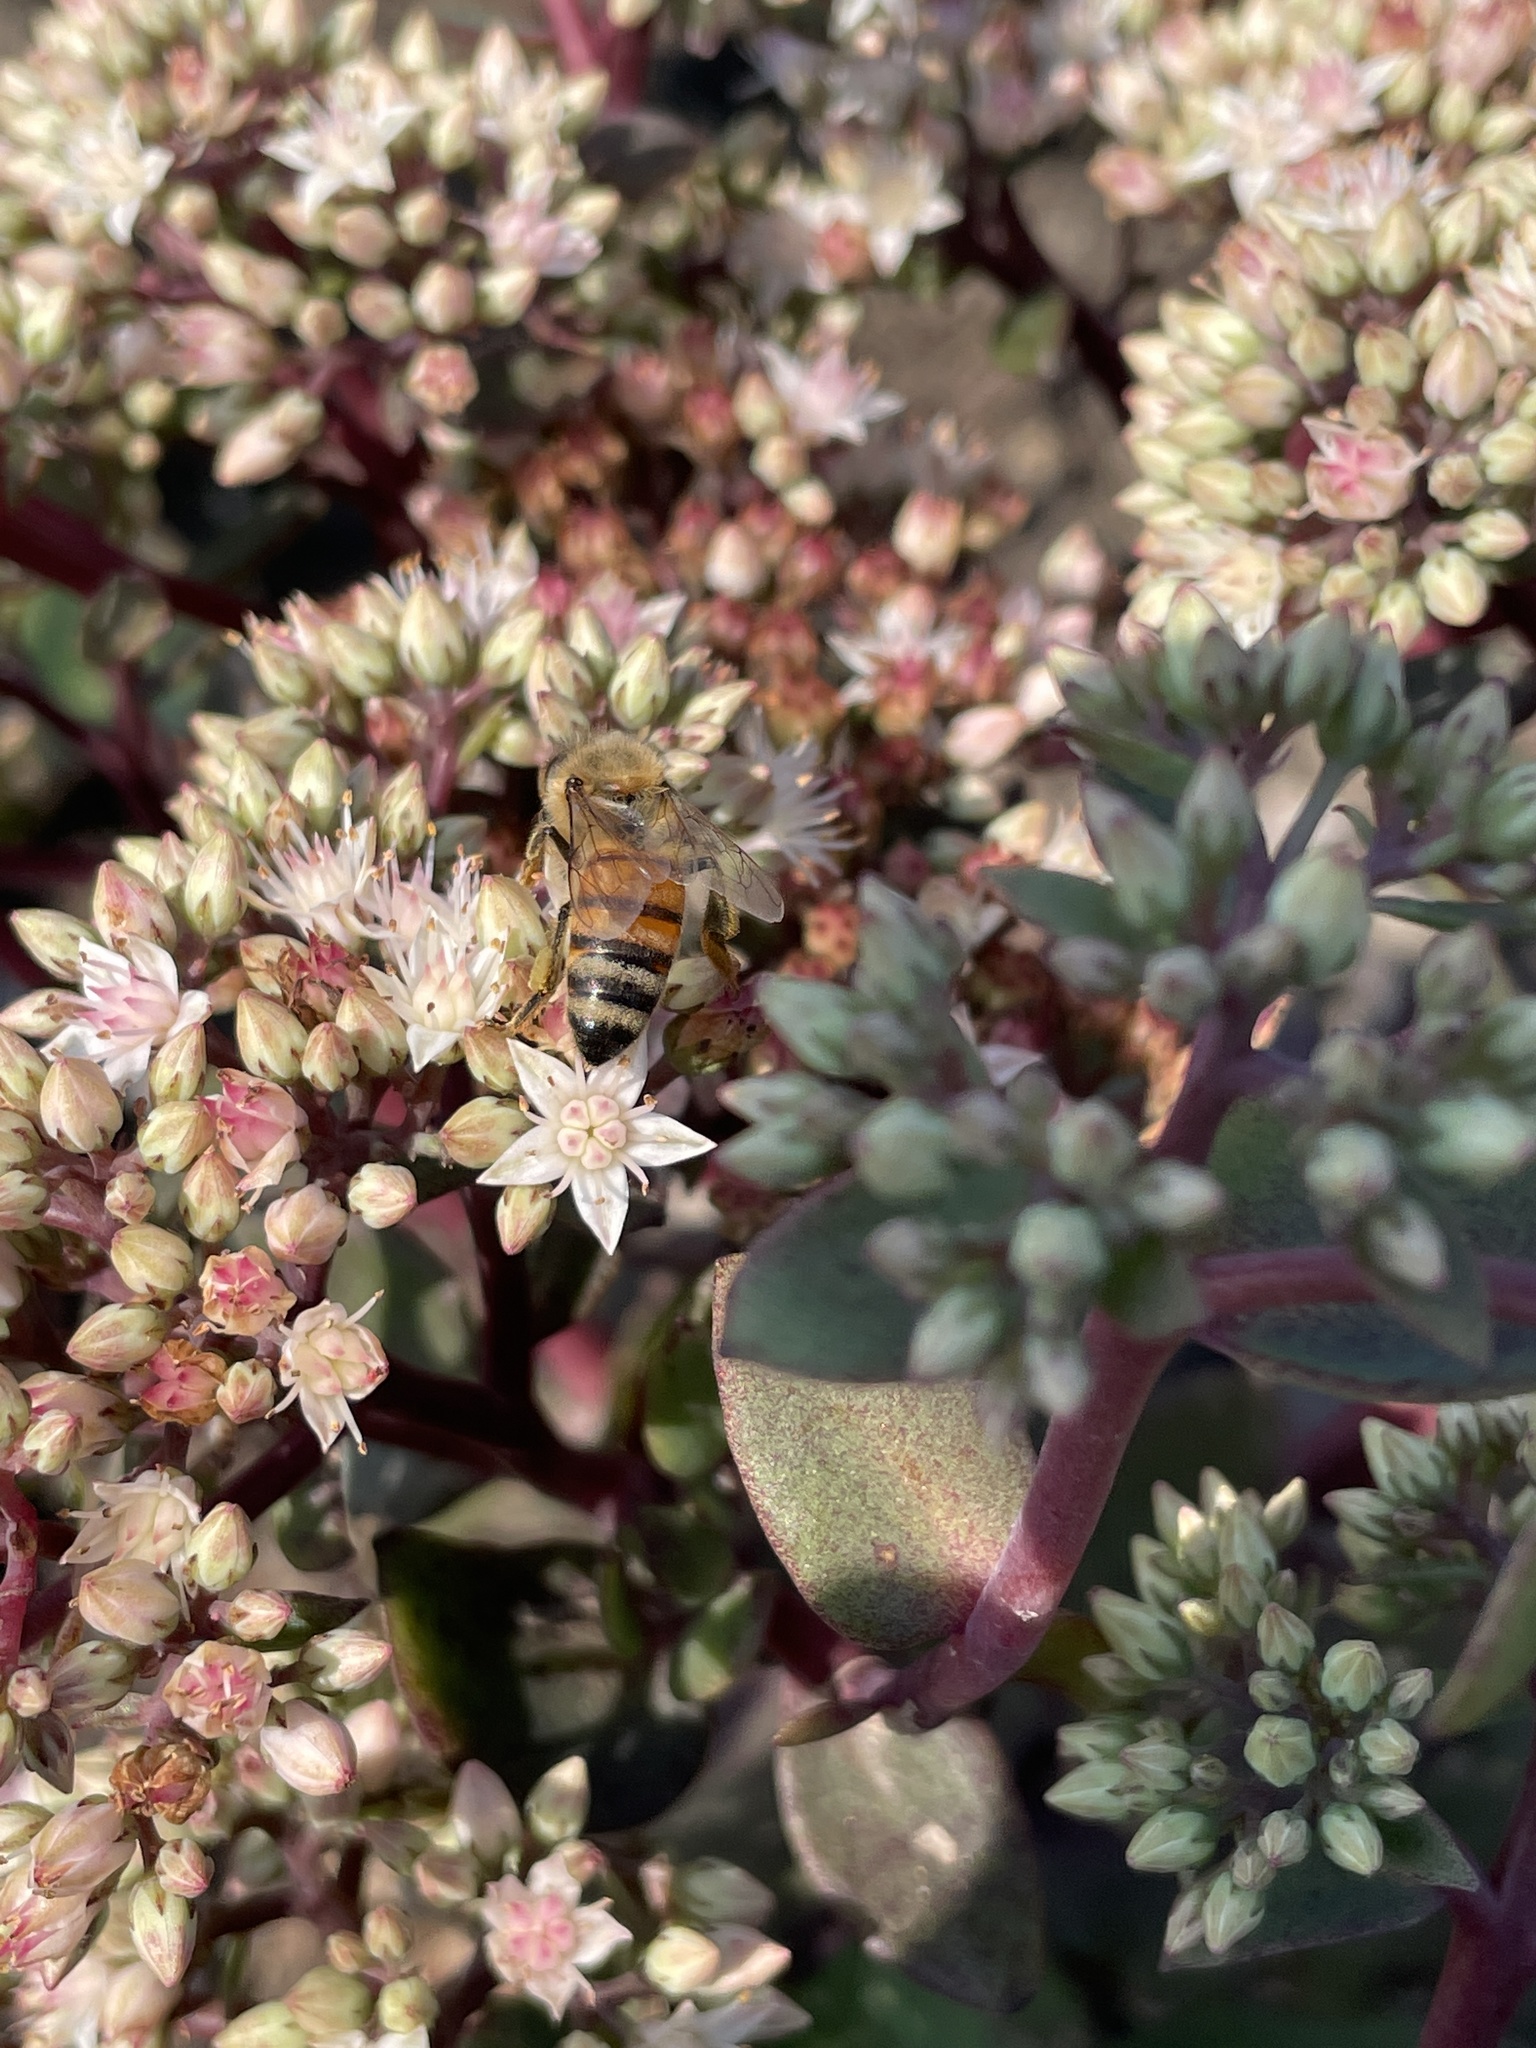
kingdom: Animalia
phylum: Arthropoda
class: Insecta
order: Hymenoptera
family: Apidae
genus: Apis
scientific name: Apis mellifera
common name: Honey bee
